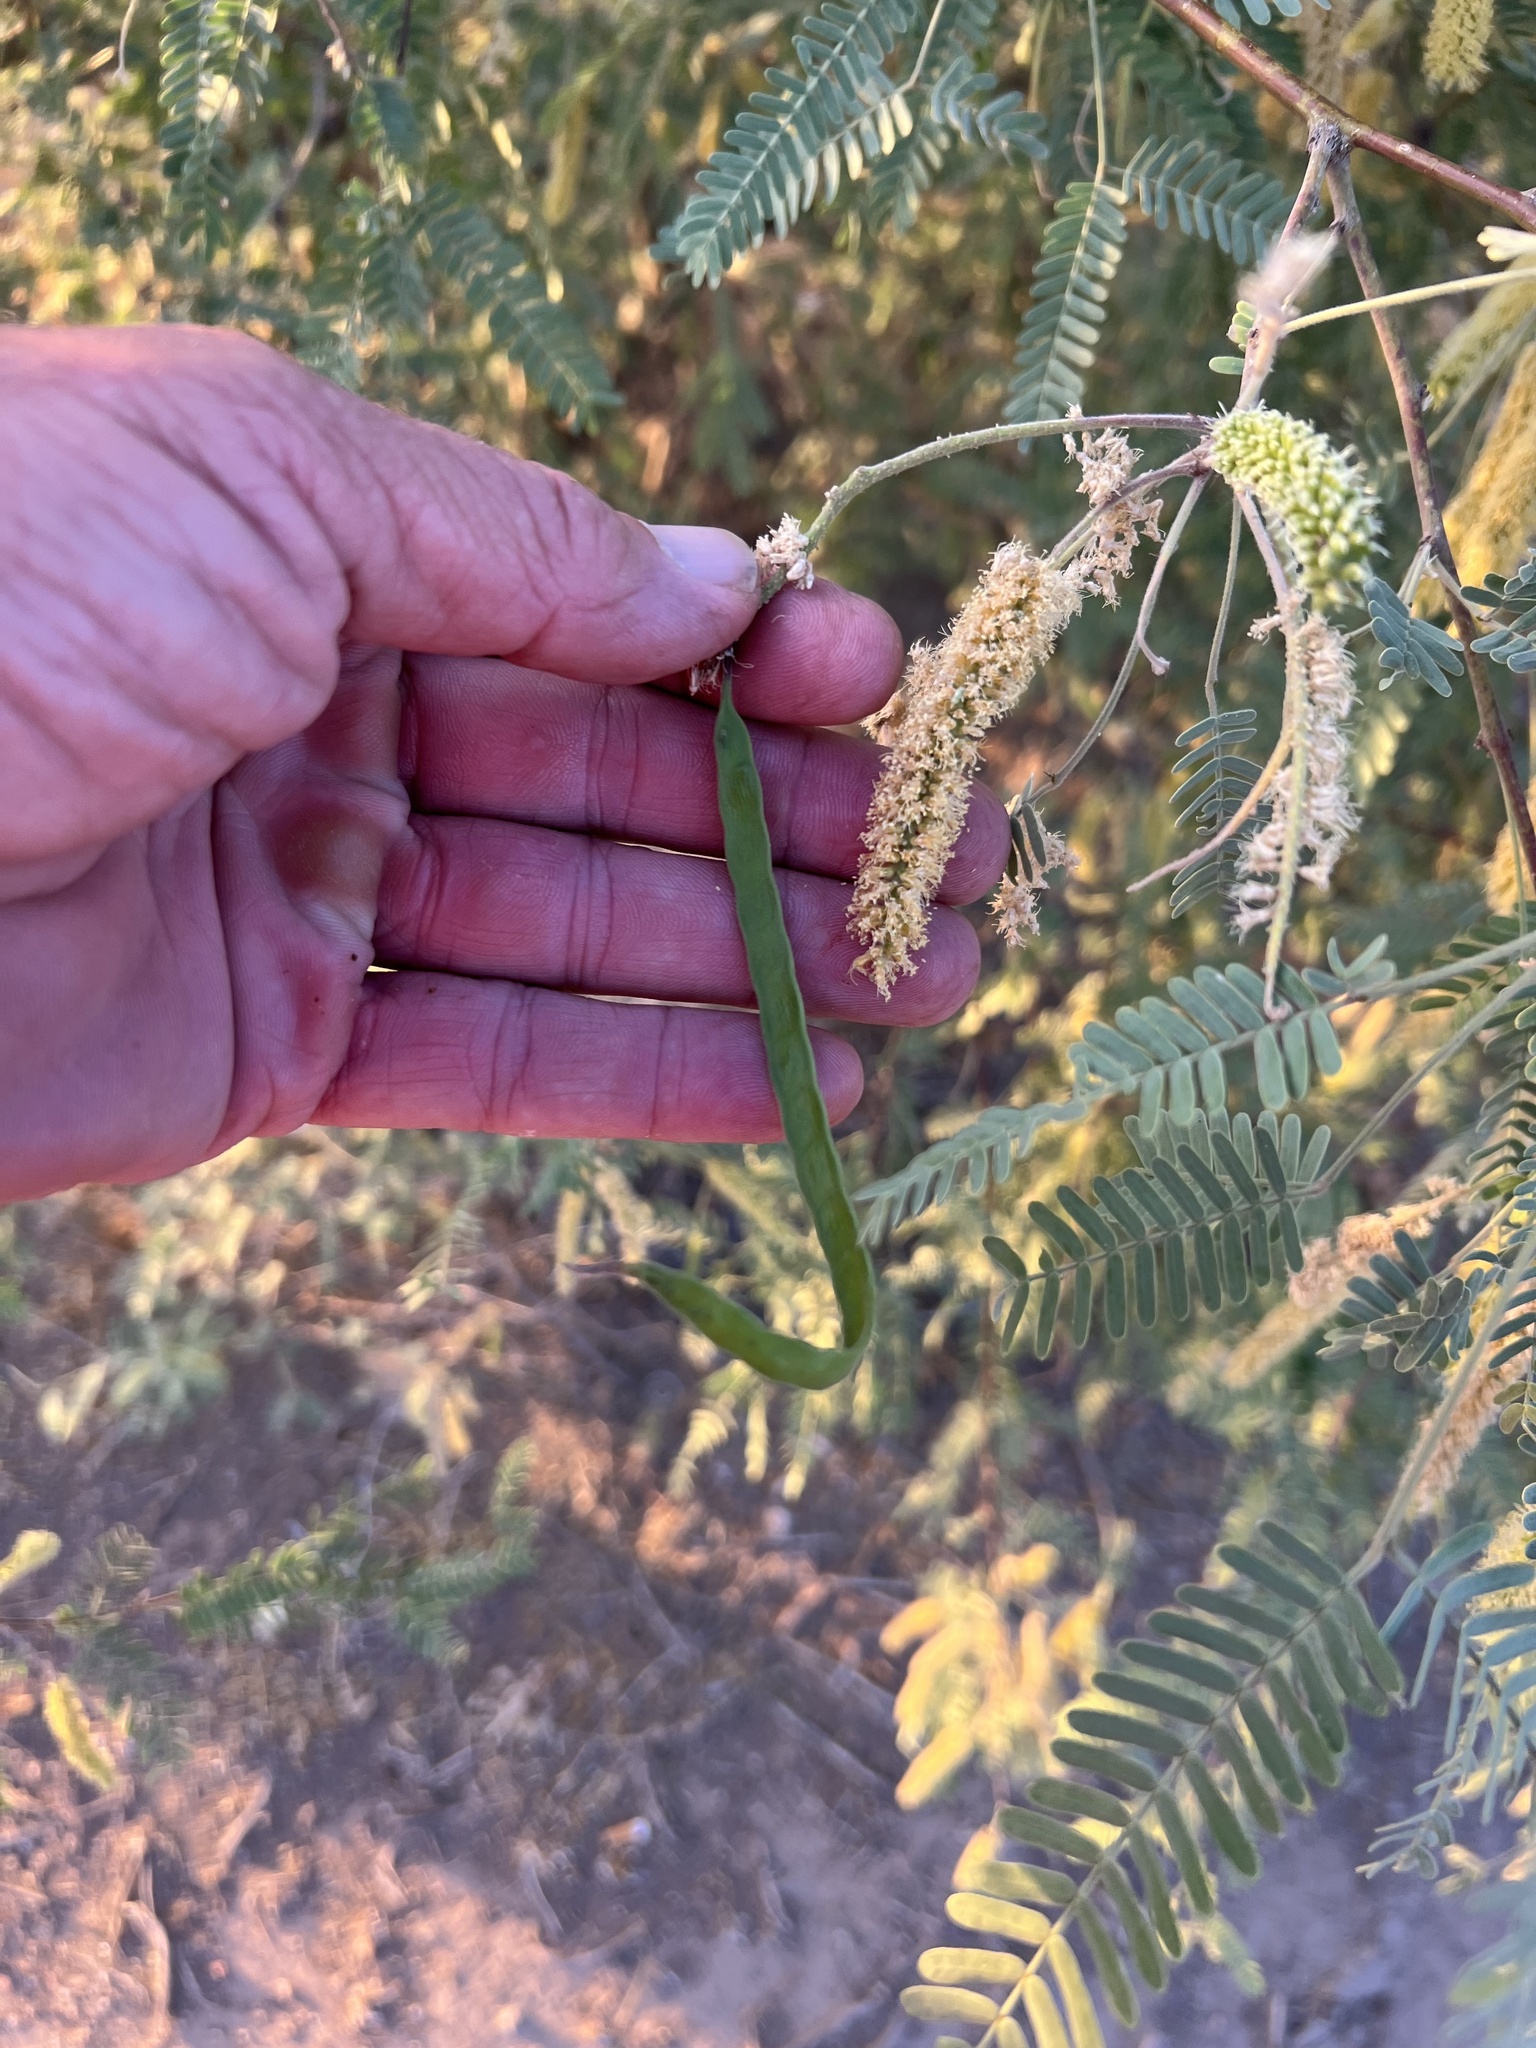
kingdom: Plantae
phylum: Tracheophyta
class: Magnoliopsida
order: Fabales
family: Fabaceae
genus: Prosopis
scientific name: Prosopis velutina
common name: Velvet mesquite
